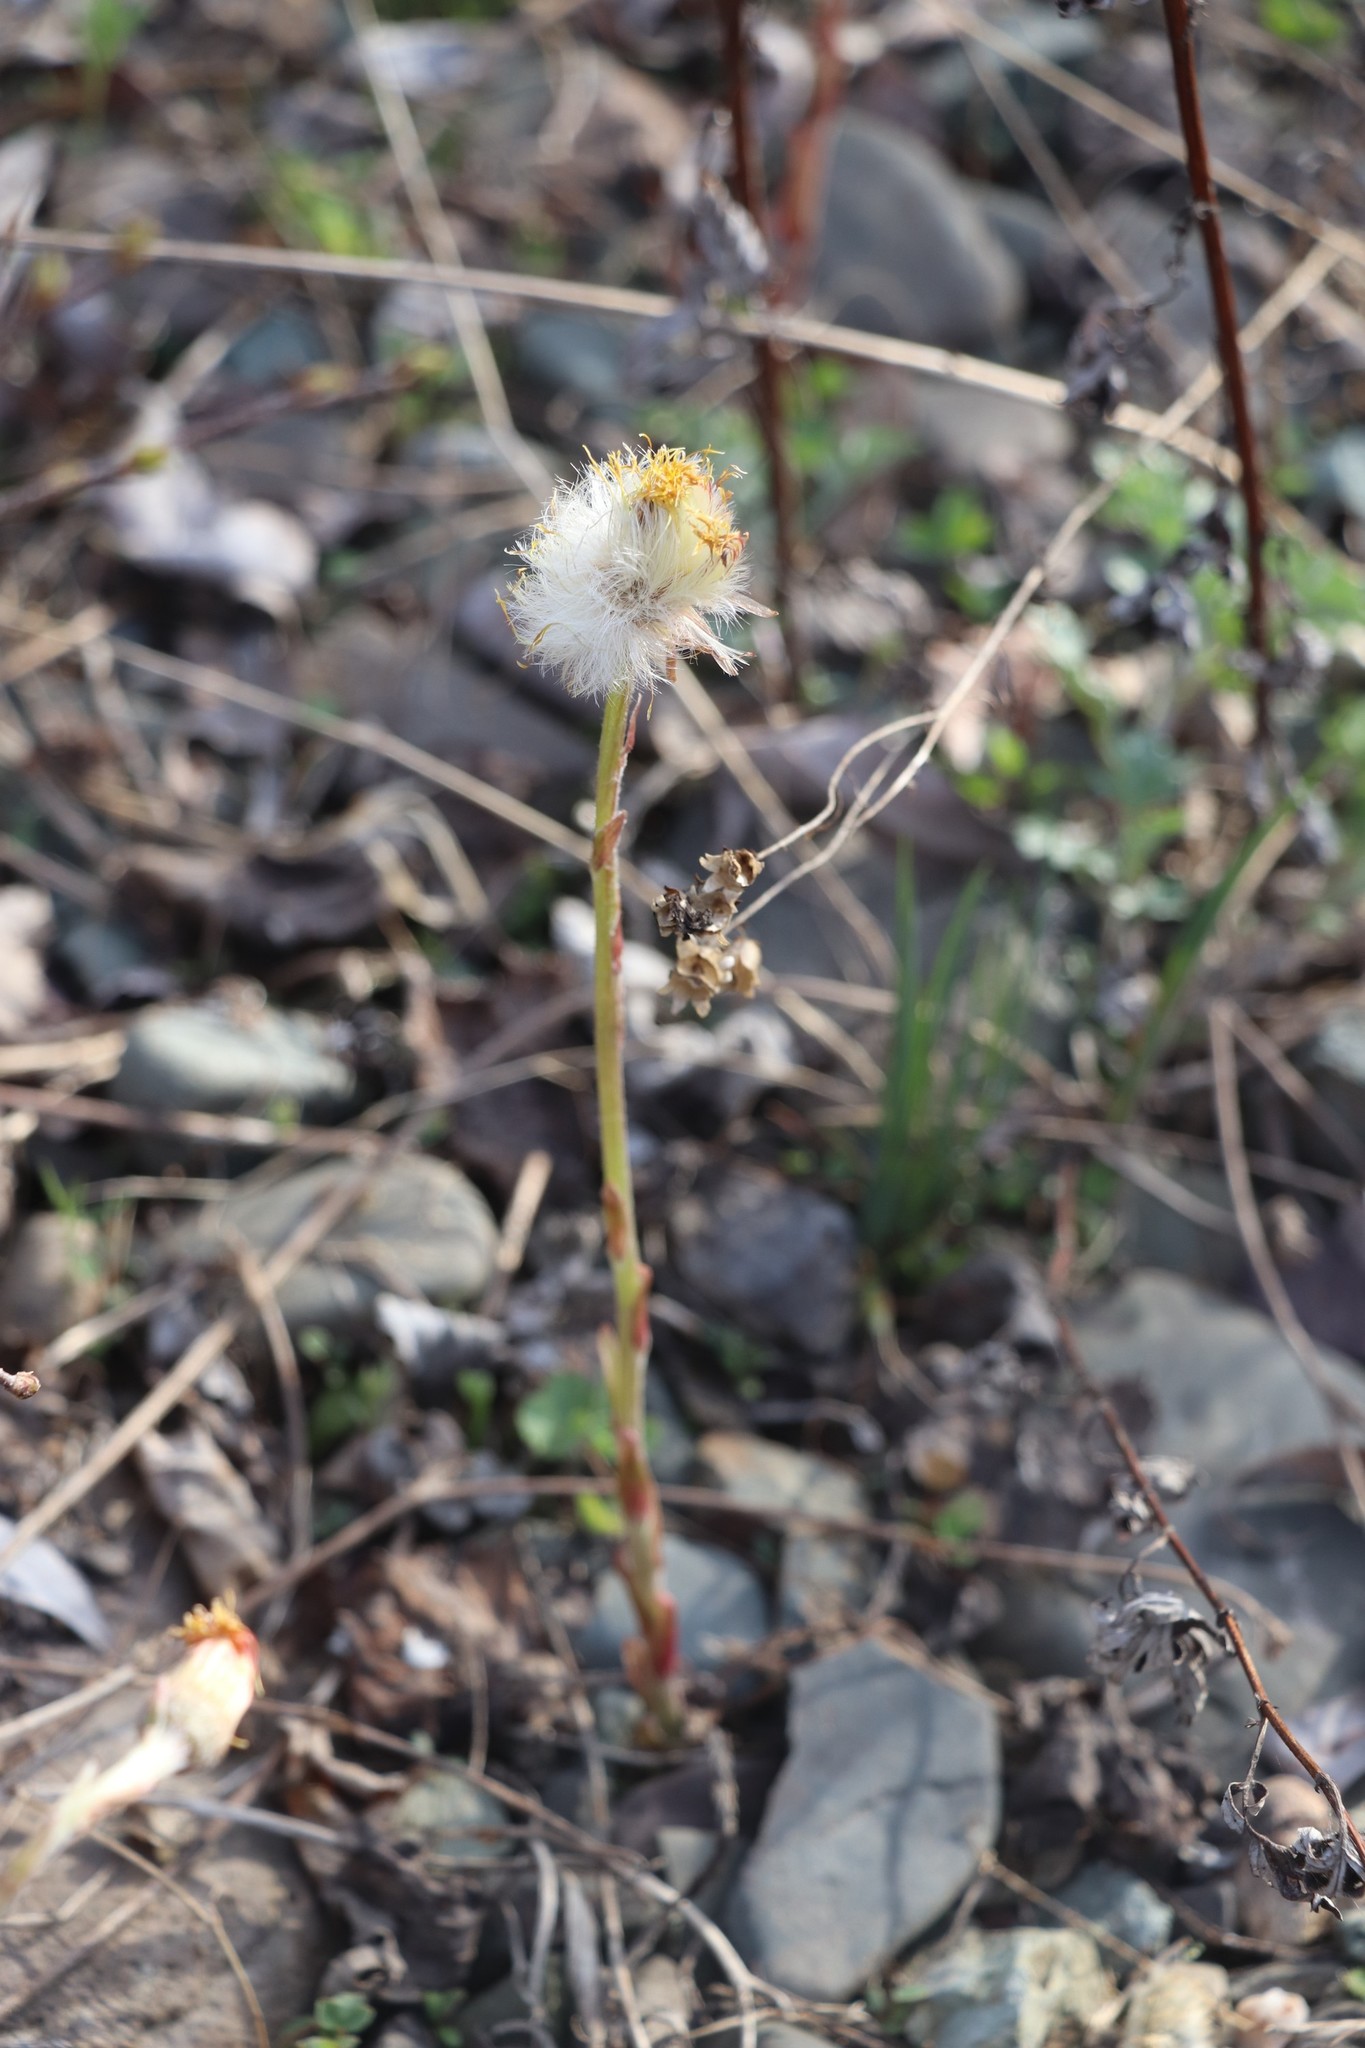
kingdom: Plantae
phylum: Tracheophyta
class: Magnoliopsida
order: Asterales
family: Asteraceae
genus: Tussilago
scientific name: Tussilago farfara
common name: Coltsfoot
